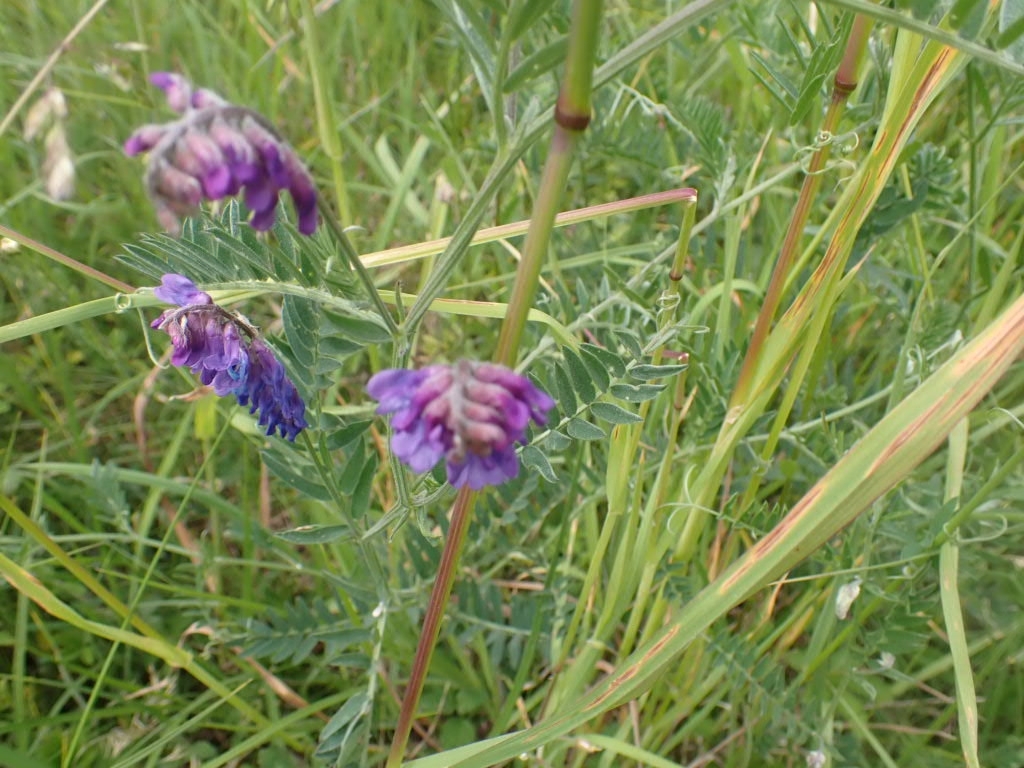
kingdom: Plantae
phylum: Tracheophyta
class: Magnoliopsida
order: Fabales
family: Fabaceae
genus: Vicia
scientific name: Vicia cracca
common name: Bird vetch
